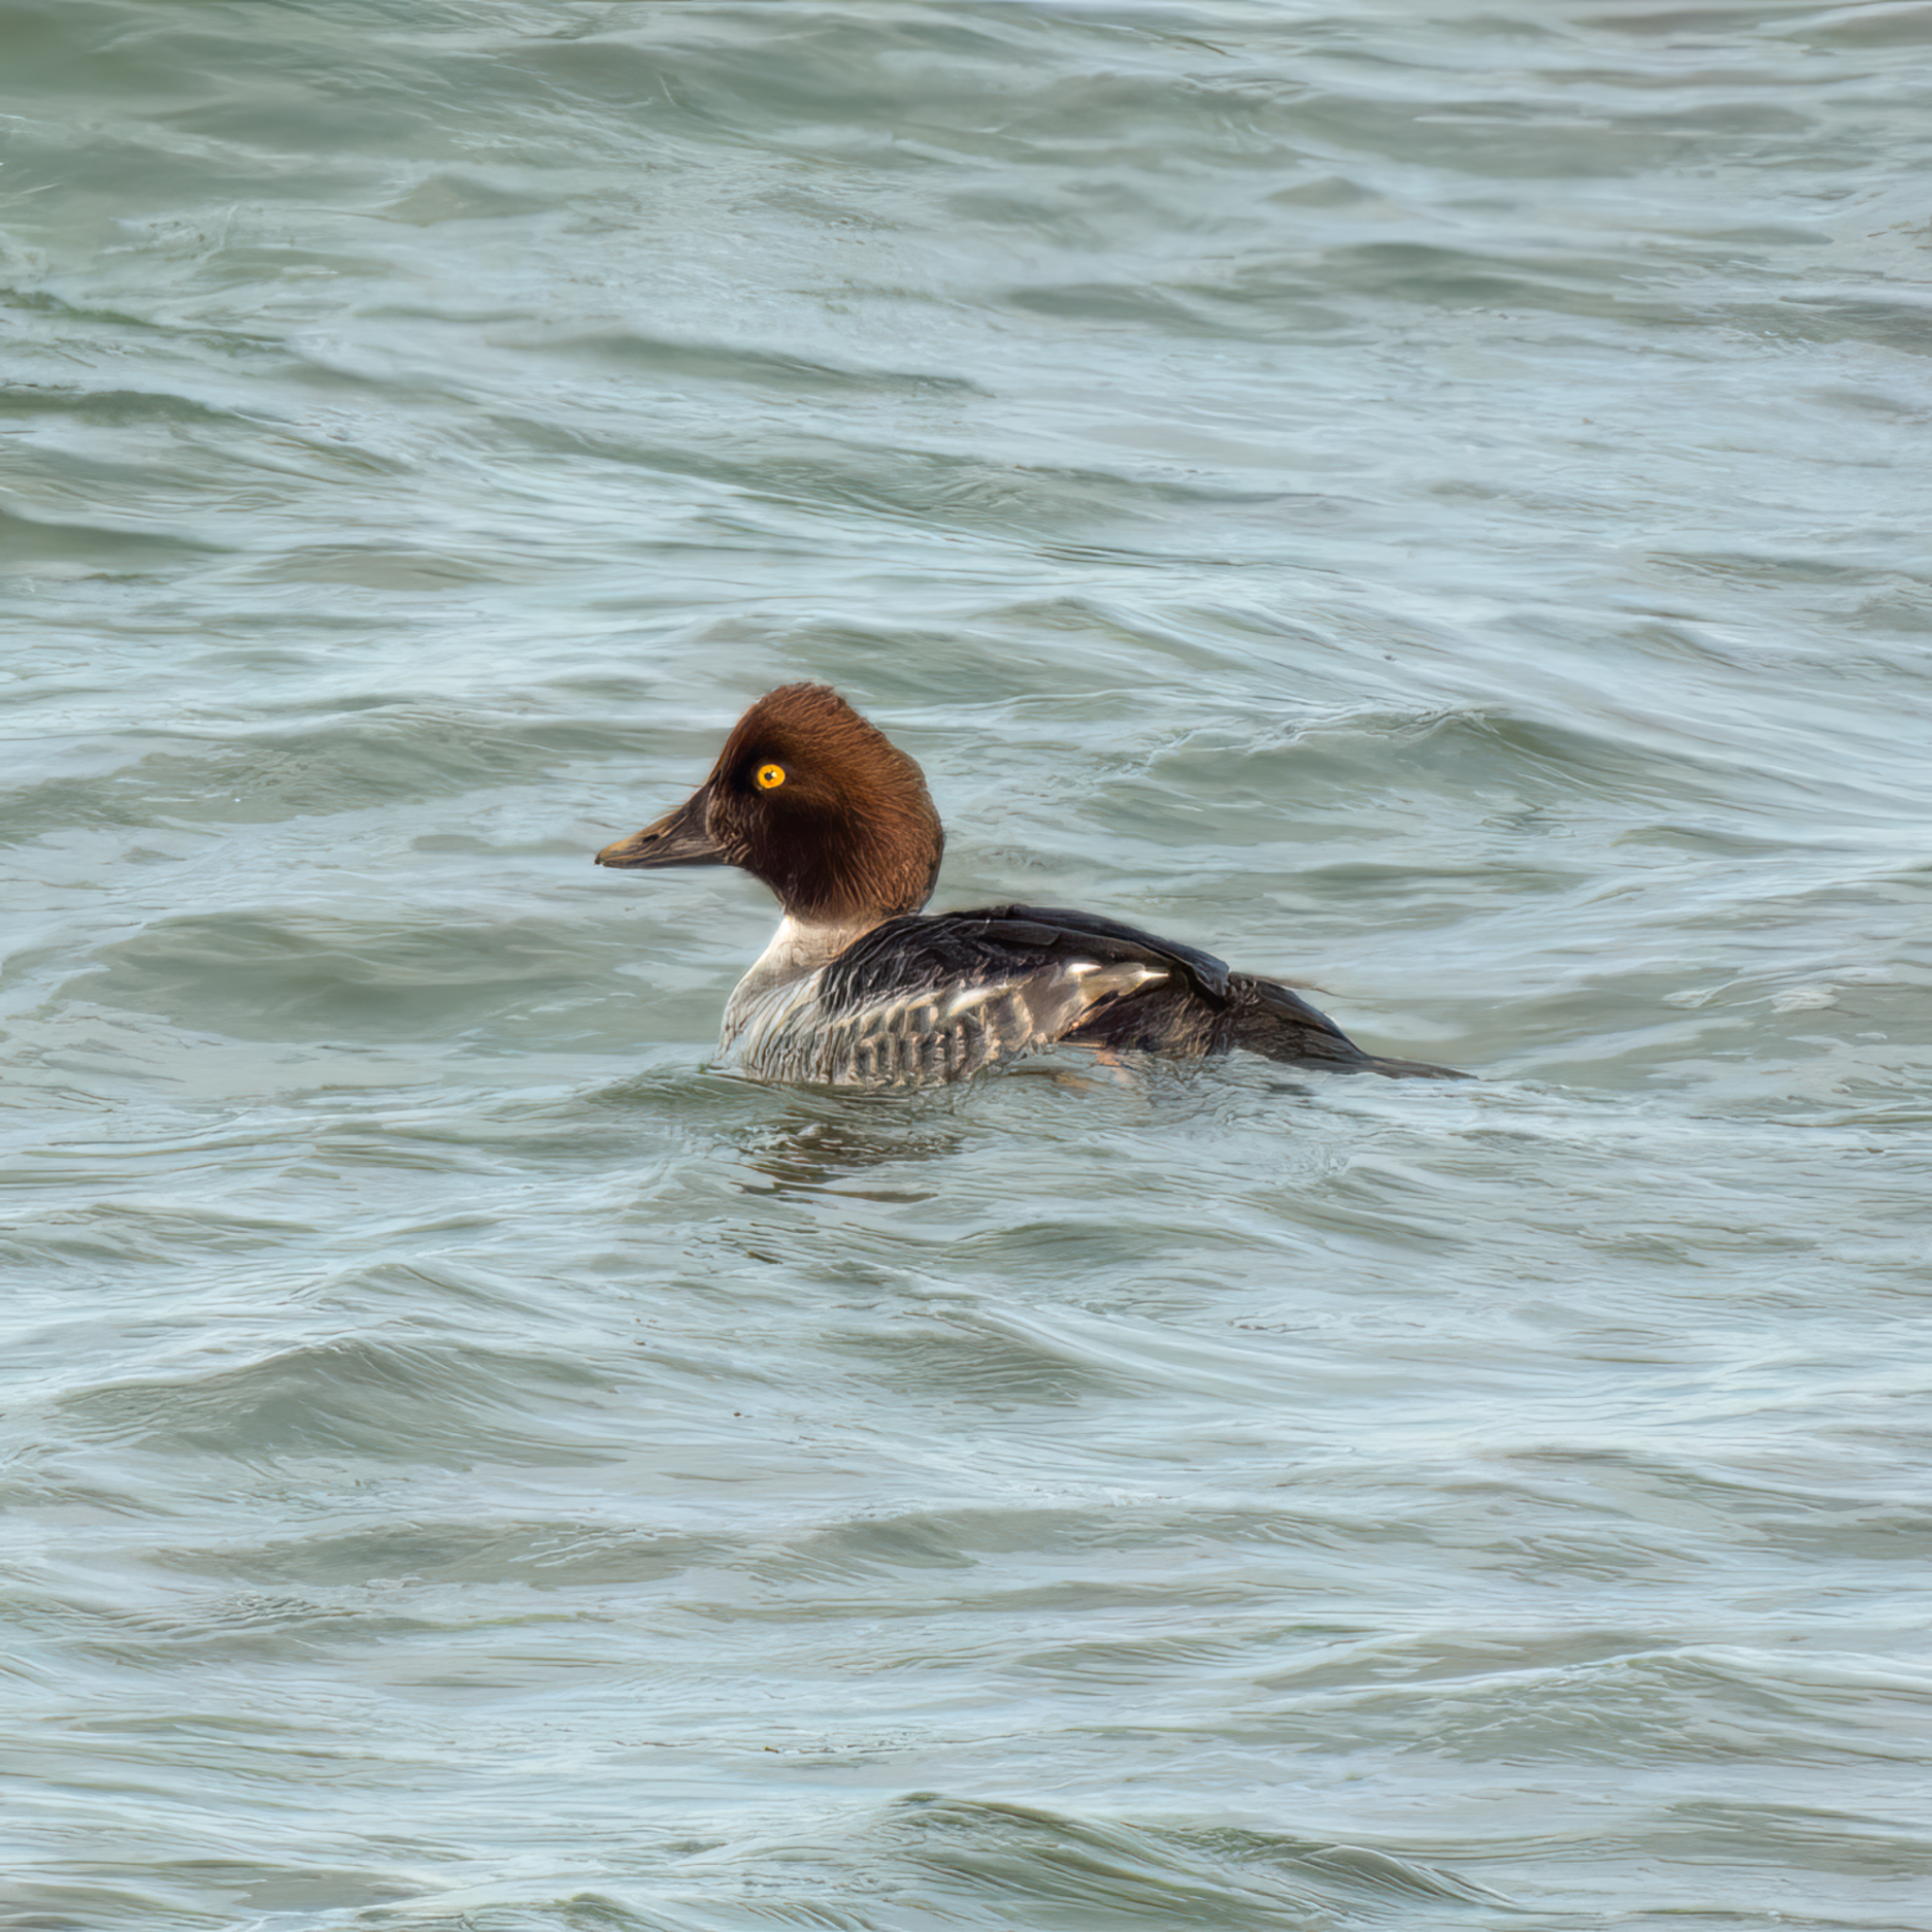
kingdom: Animalia
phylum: Chordata
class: Aves
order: Anseriformes
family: Anatidae
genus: Bucephala
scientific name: Bucephala clangula
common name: Common goldeneye
